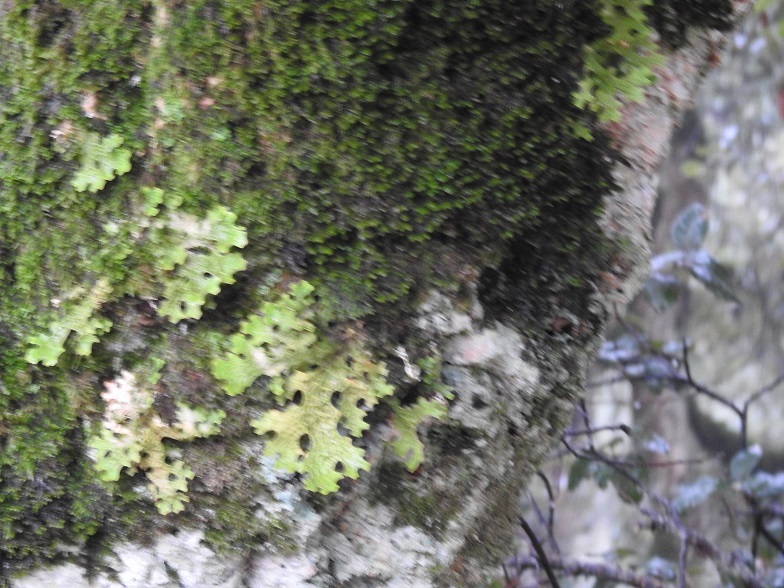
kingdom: Fungi
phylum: Ascomycota
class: Lecanoromycetes
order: Peltigerales
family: Lobariaceae
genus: Lobaria
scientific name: Lobaria pulmonaria
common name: Lungwort
